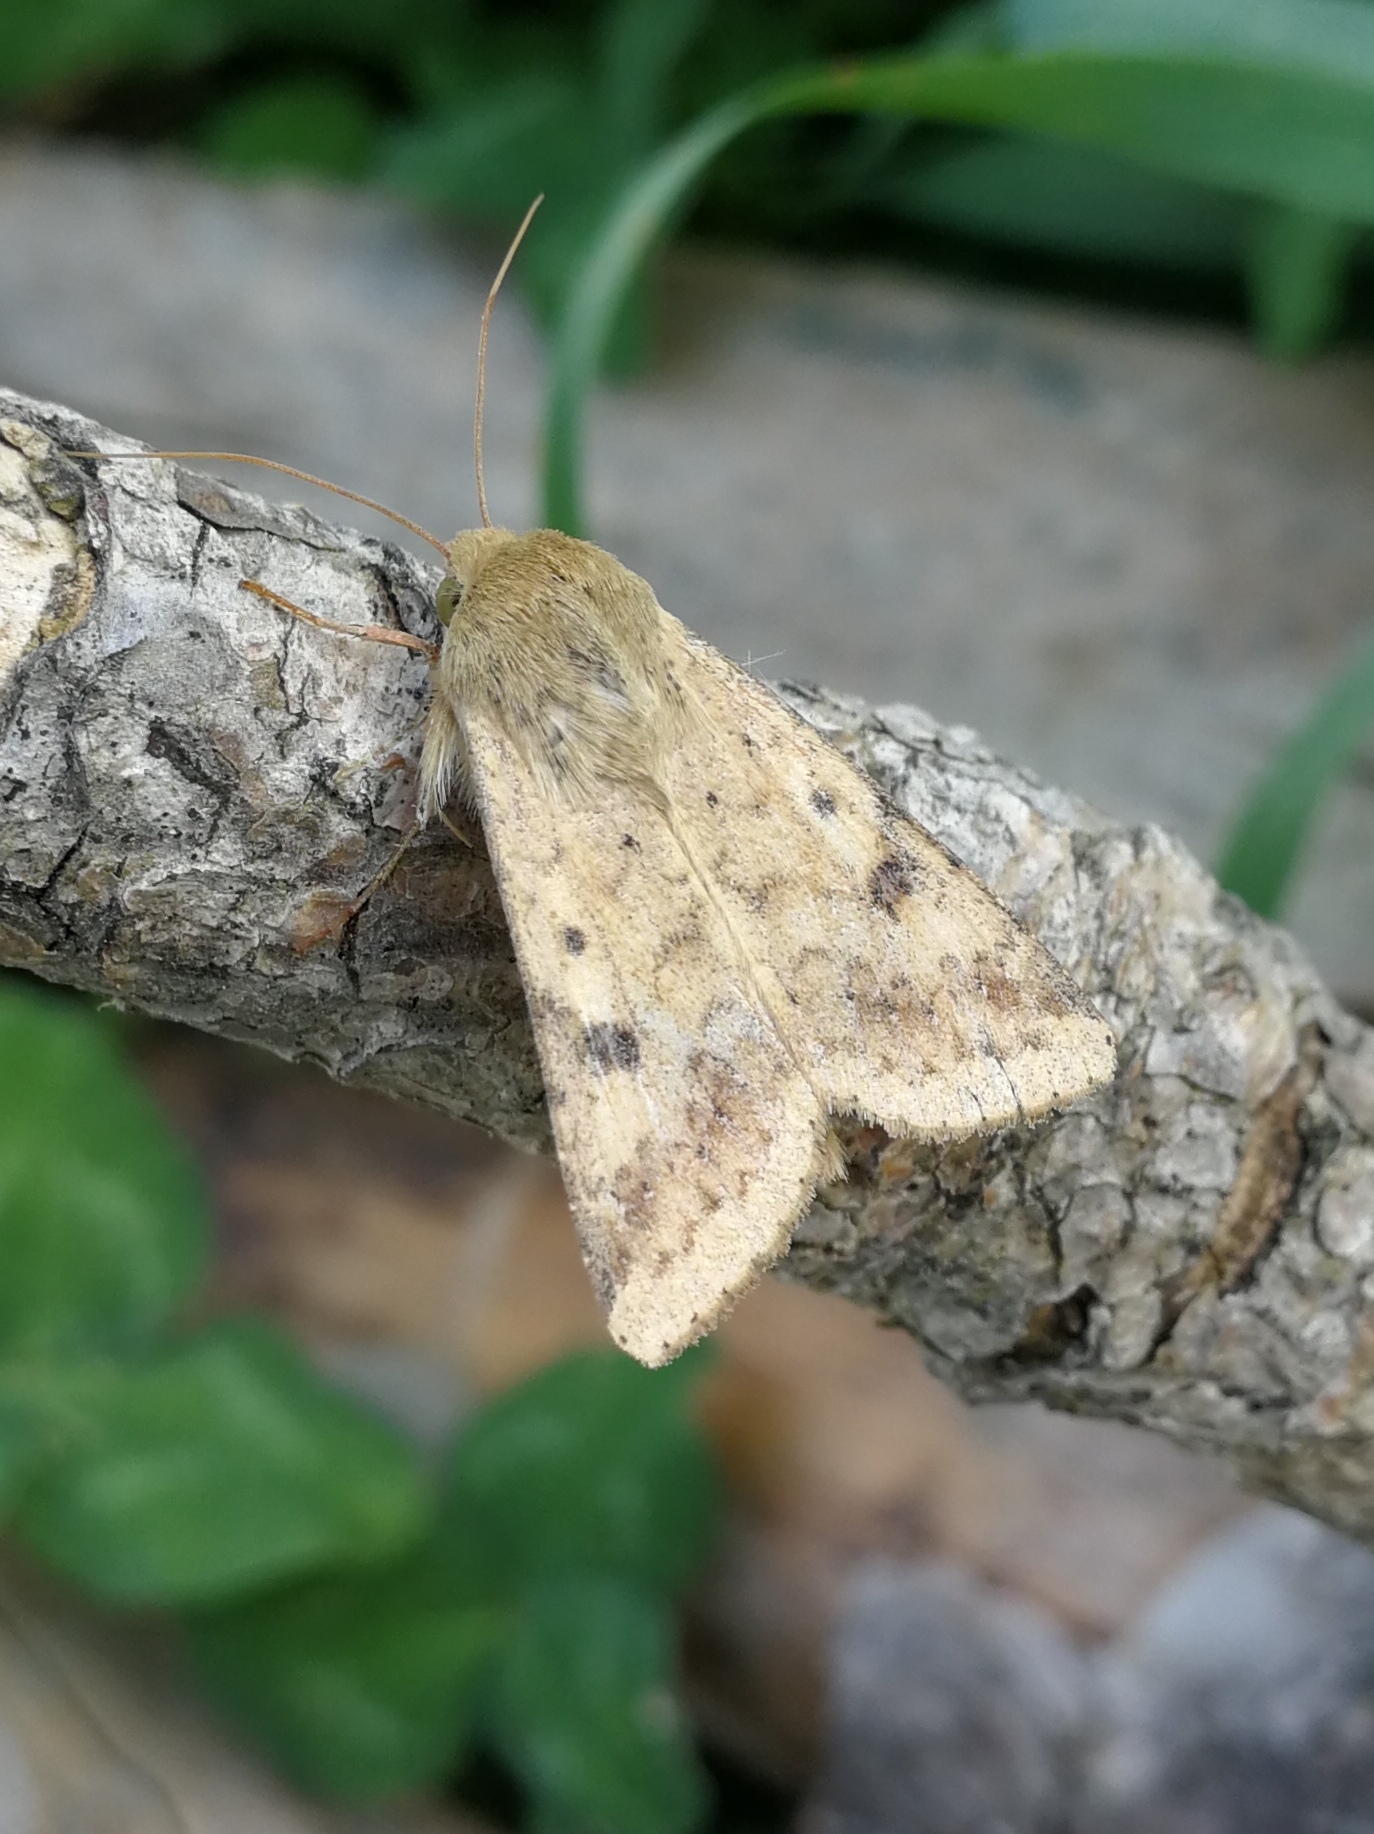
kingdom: Animalia
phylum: Arthropoda
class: Insecta
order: Lepidoptera
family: Noctuidae
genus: Helicoverpa
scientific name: Helicoverpa armigera
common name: Cotton bollworm
